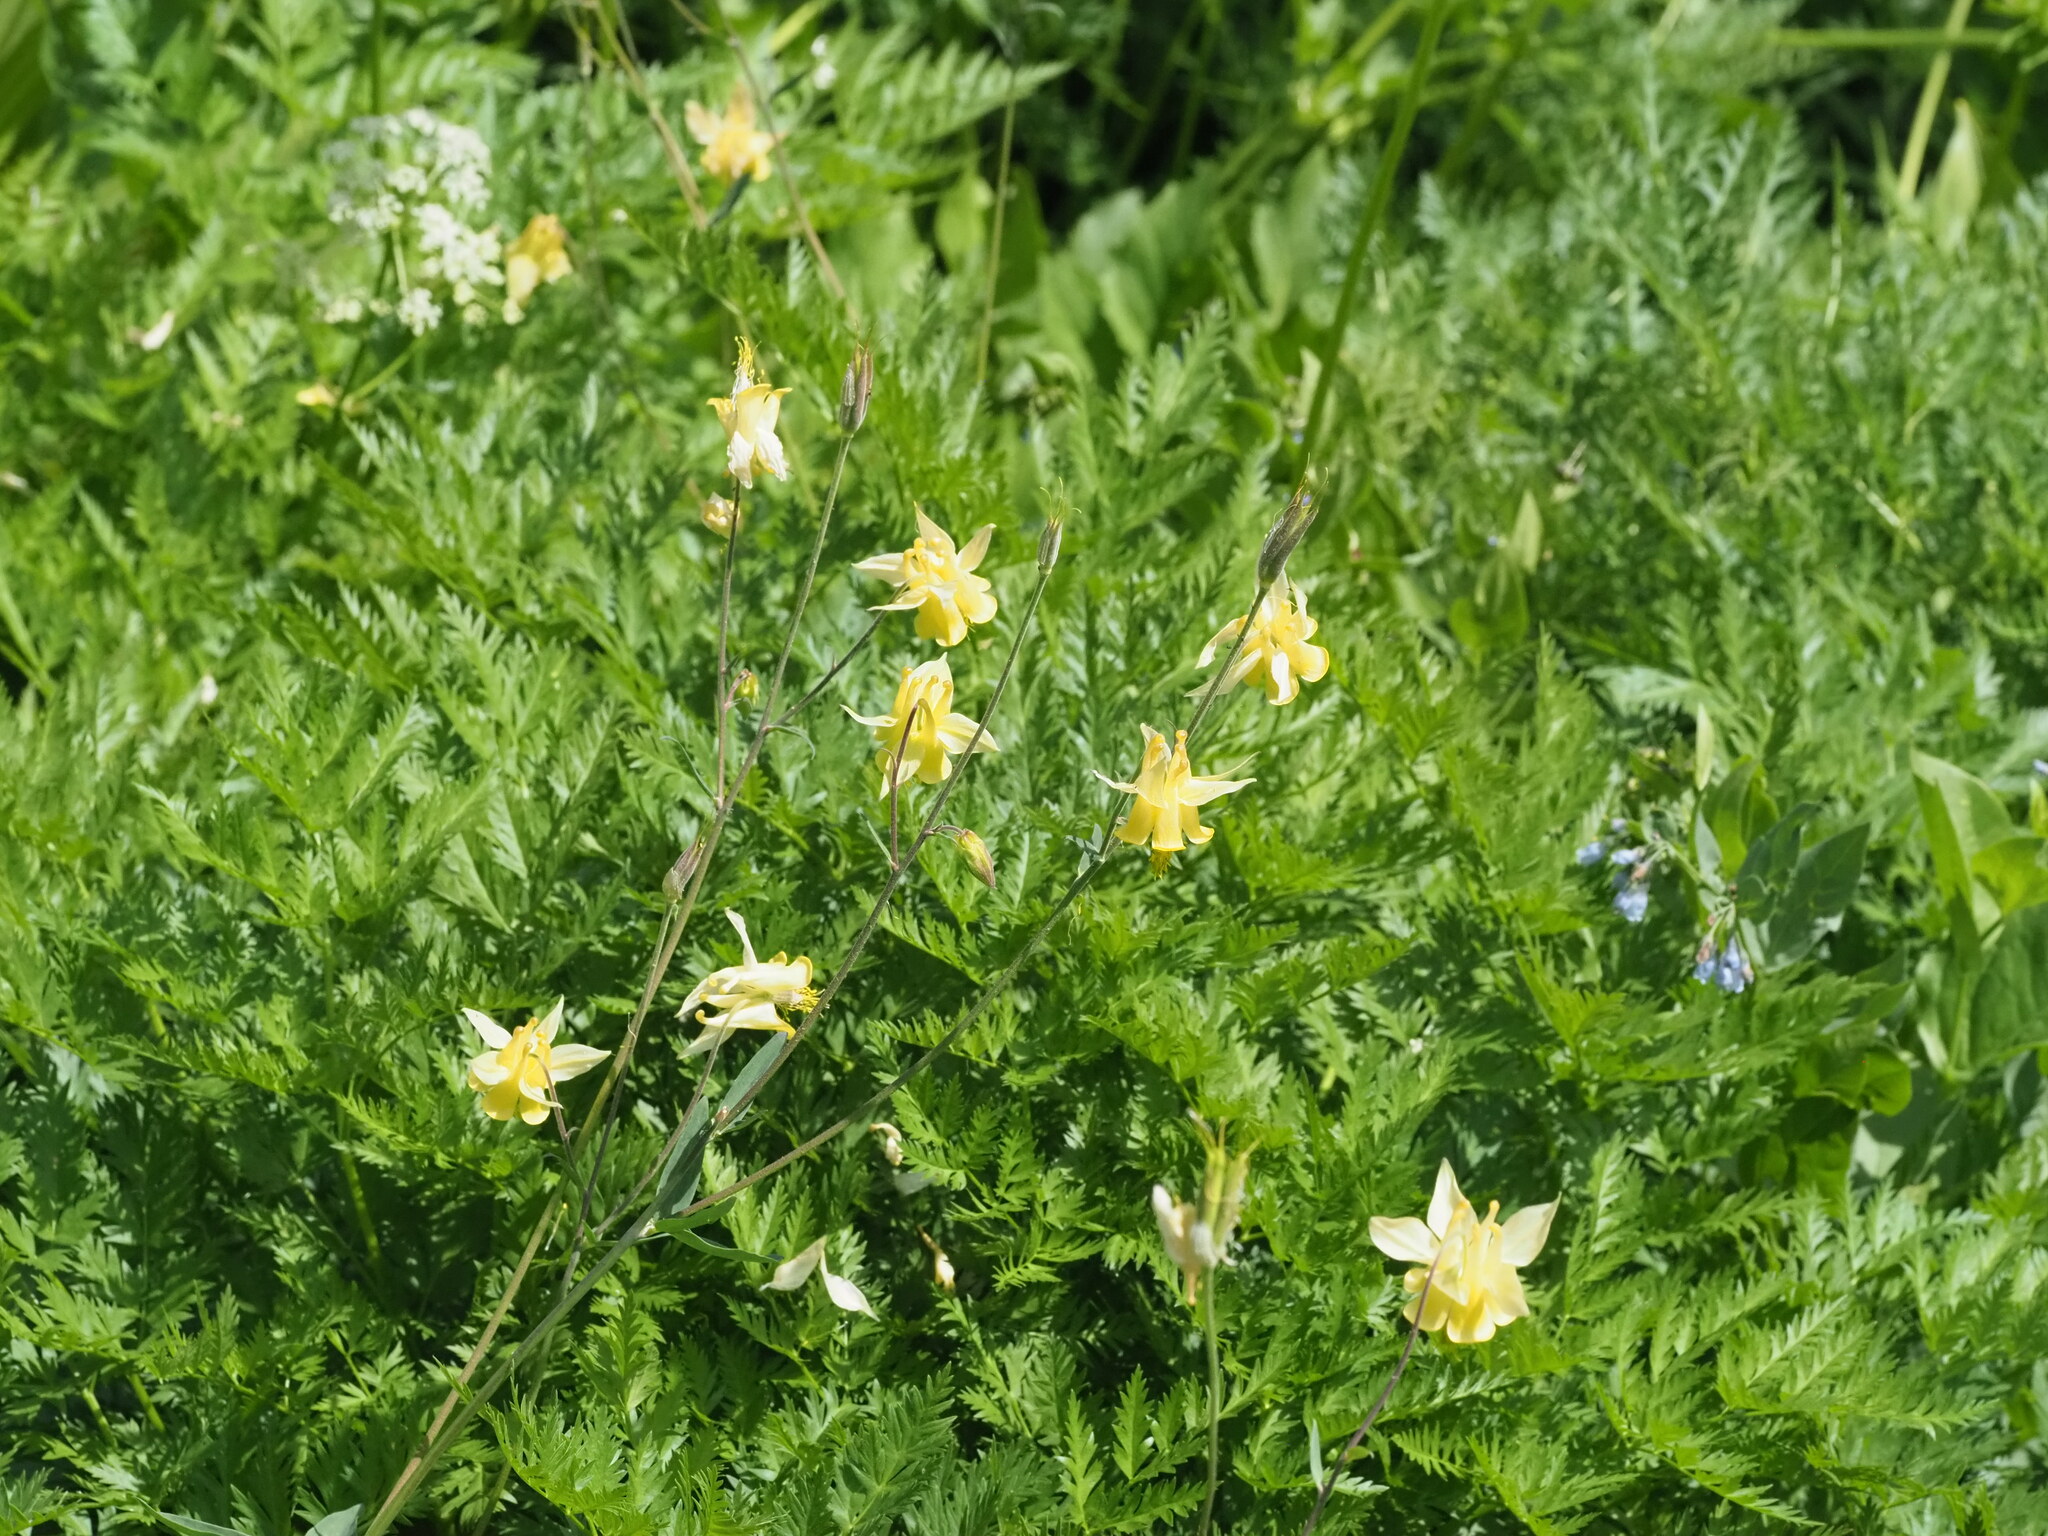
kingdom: Plantae
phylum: Tracheophyta
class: Magnoliopsida
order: Ranunculales
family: Ranunculaceae
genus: Aquilegia
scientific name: Aquilegia flavescens
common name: Yellow columbine
